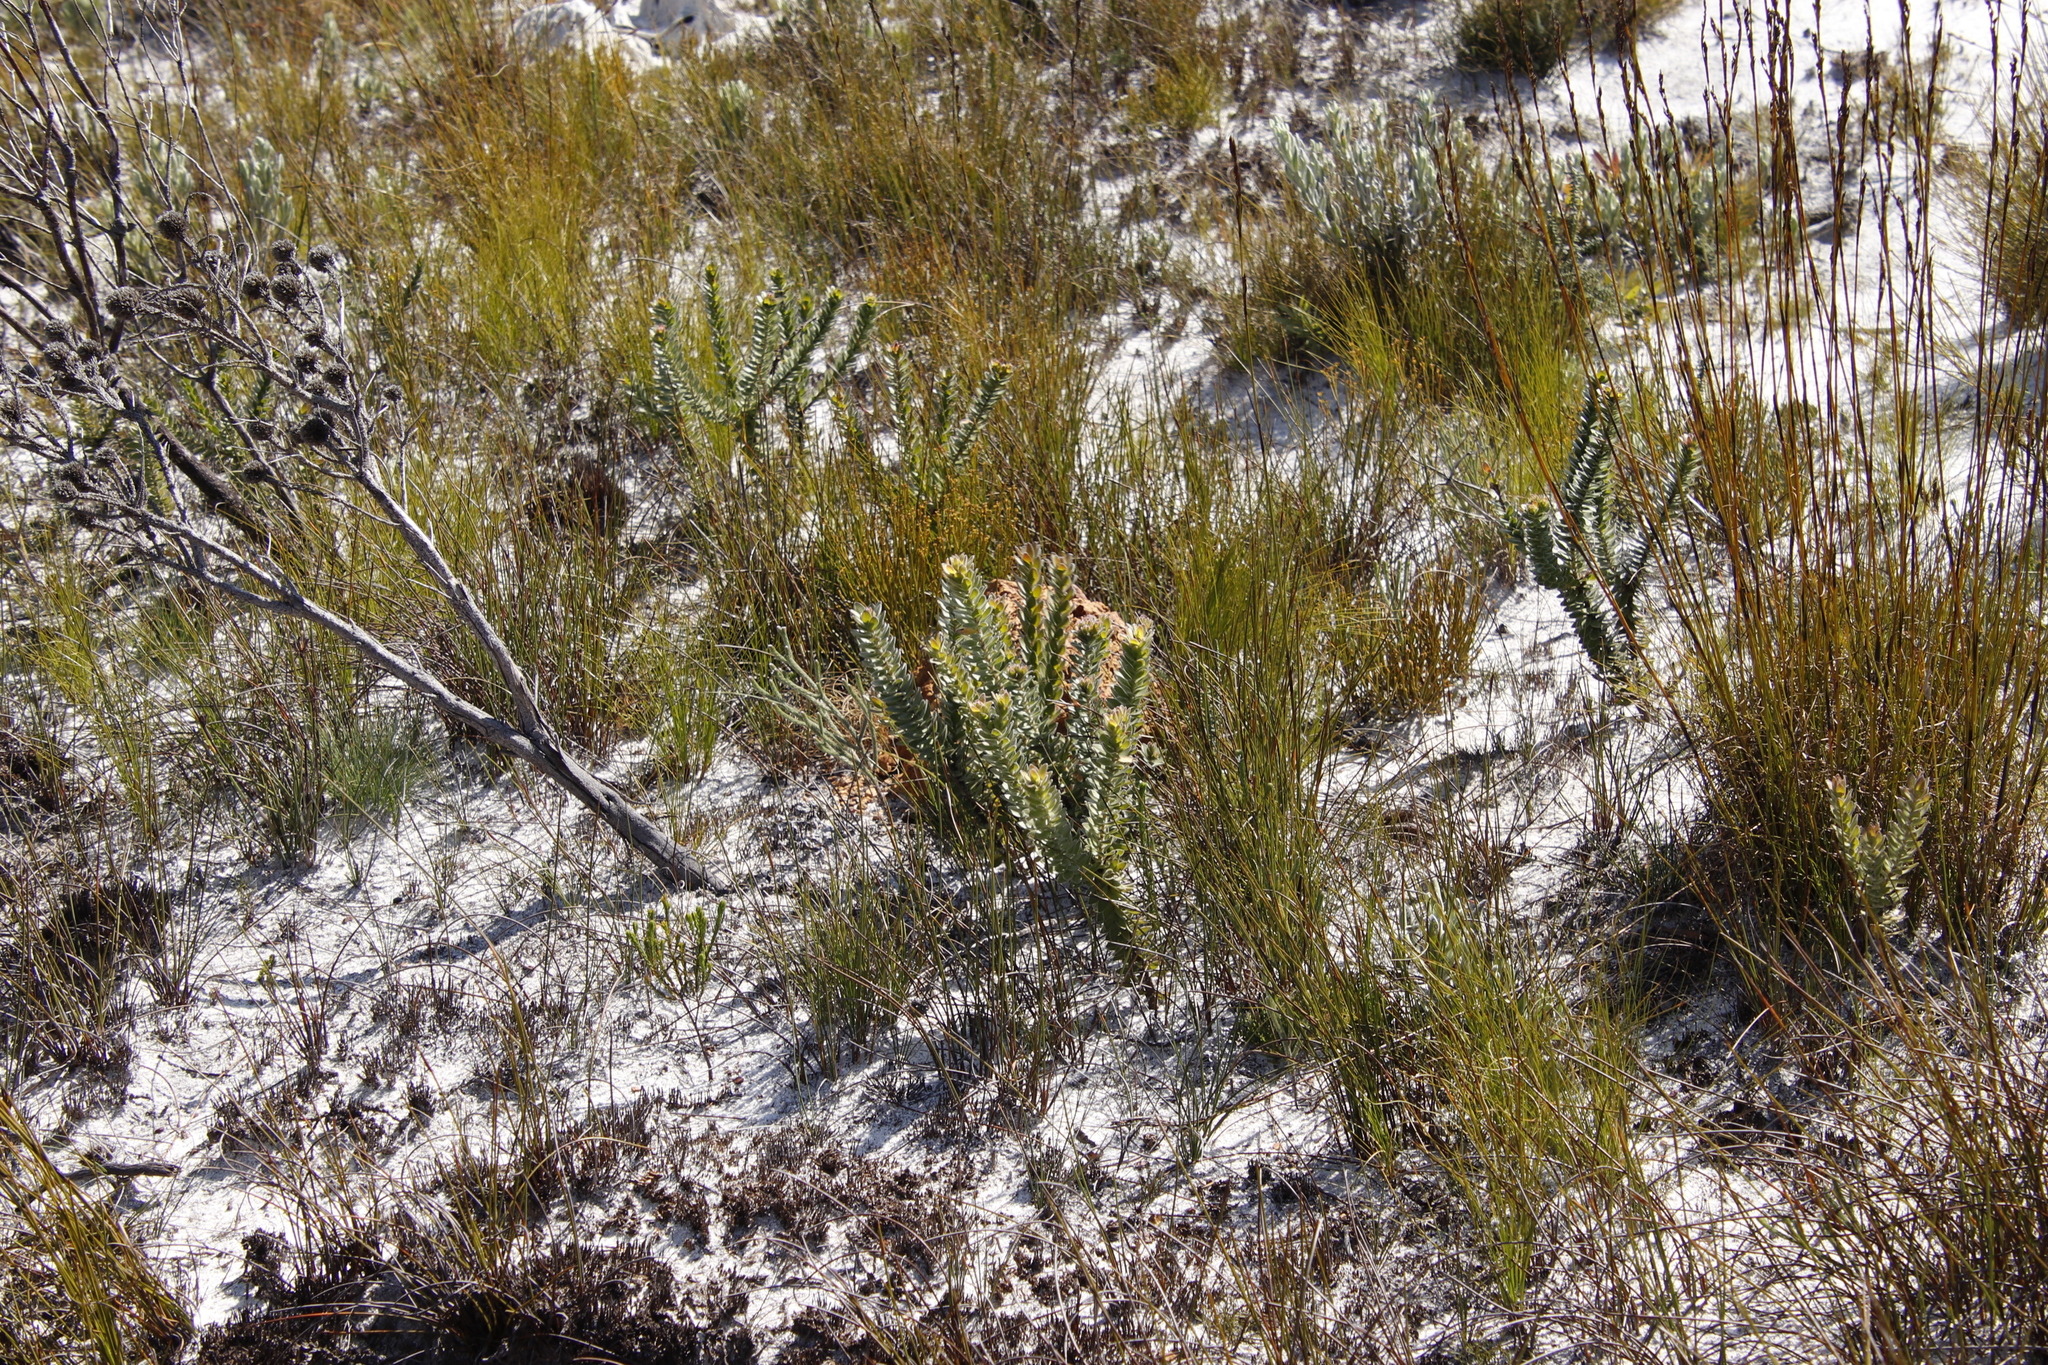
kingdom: Plantae
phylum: Tracheophyta
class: Magnoliopsida
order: Proteales
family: Proteaceae
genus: Diastella
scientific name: Diastella thymelaeoides
